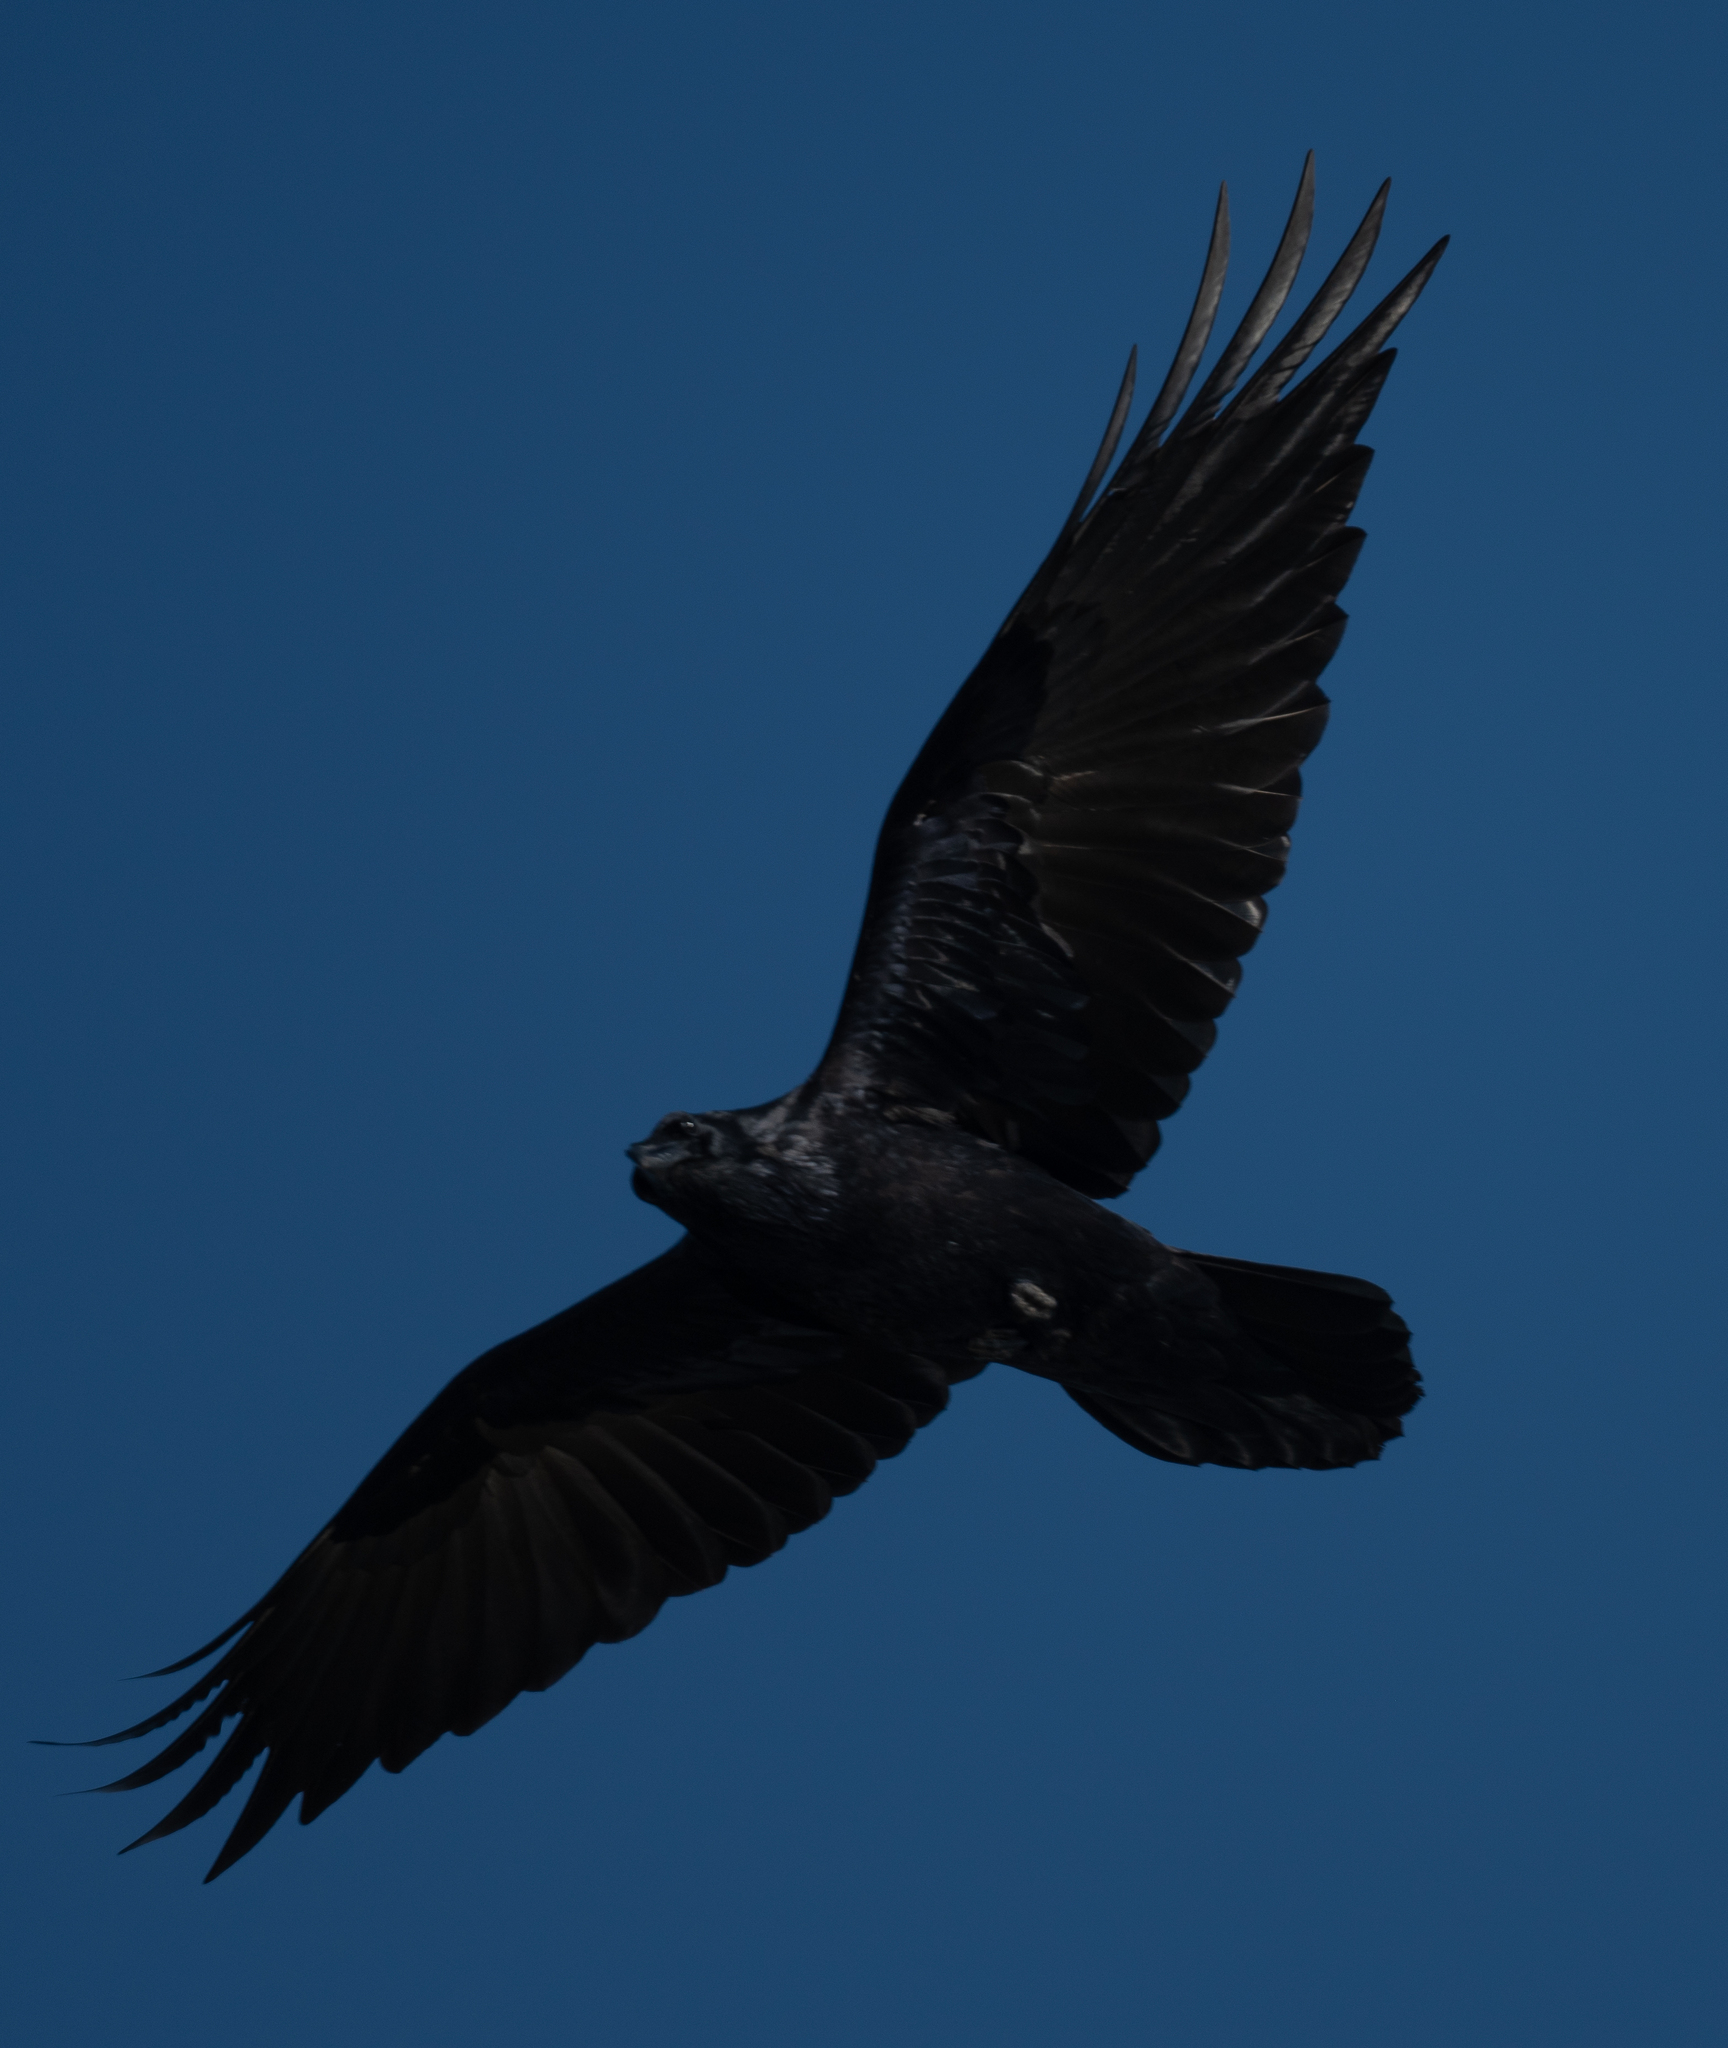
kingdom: Animalia
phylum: Chordata
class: Aves
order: Passeriformes
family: Corvidae
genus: Corvus
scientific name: Corvus corax
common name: Common raven
